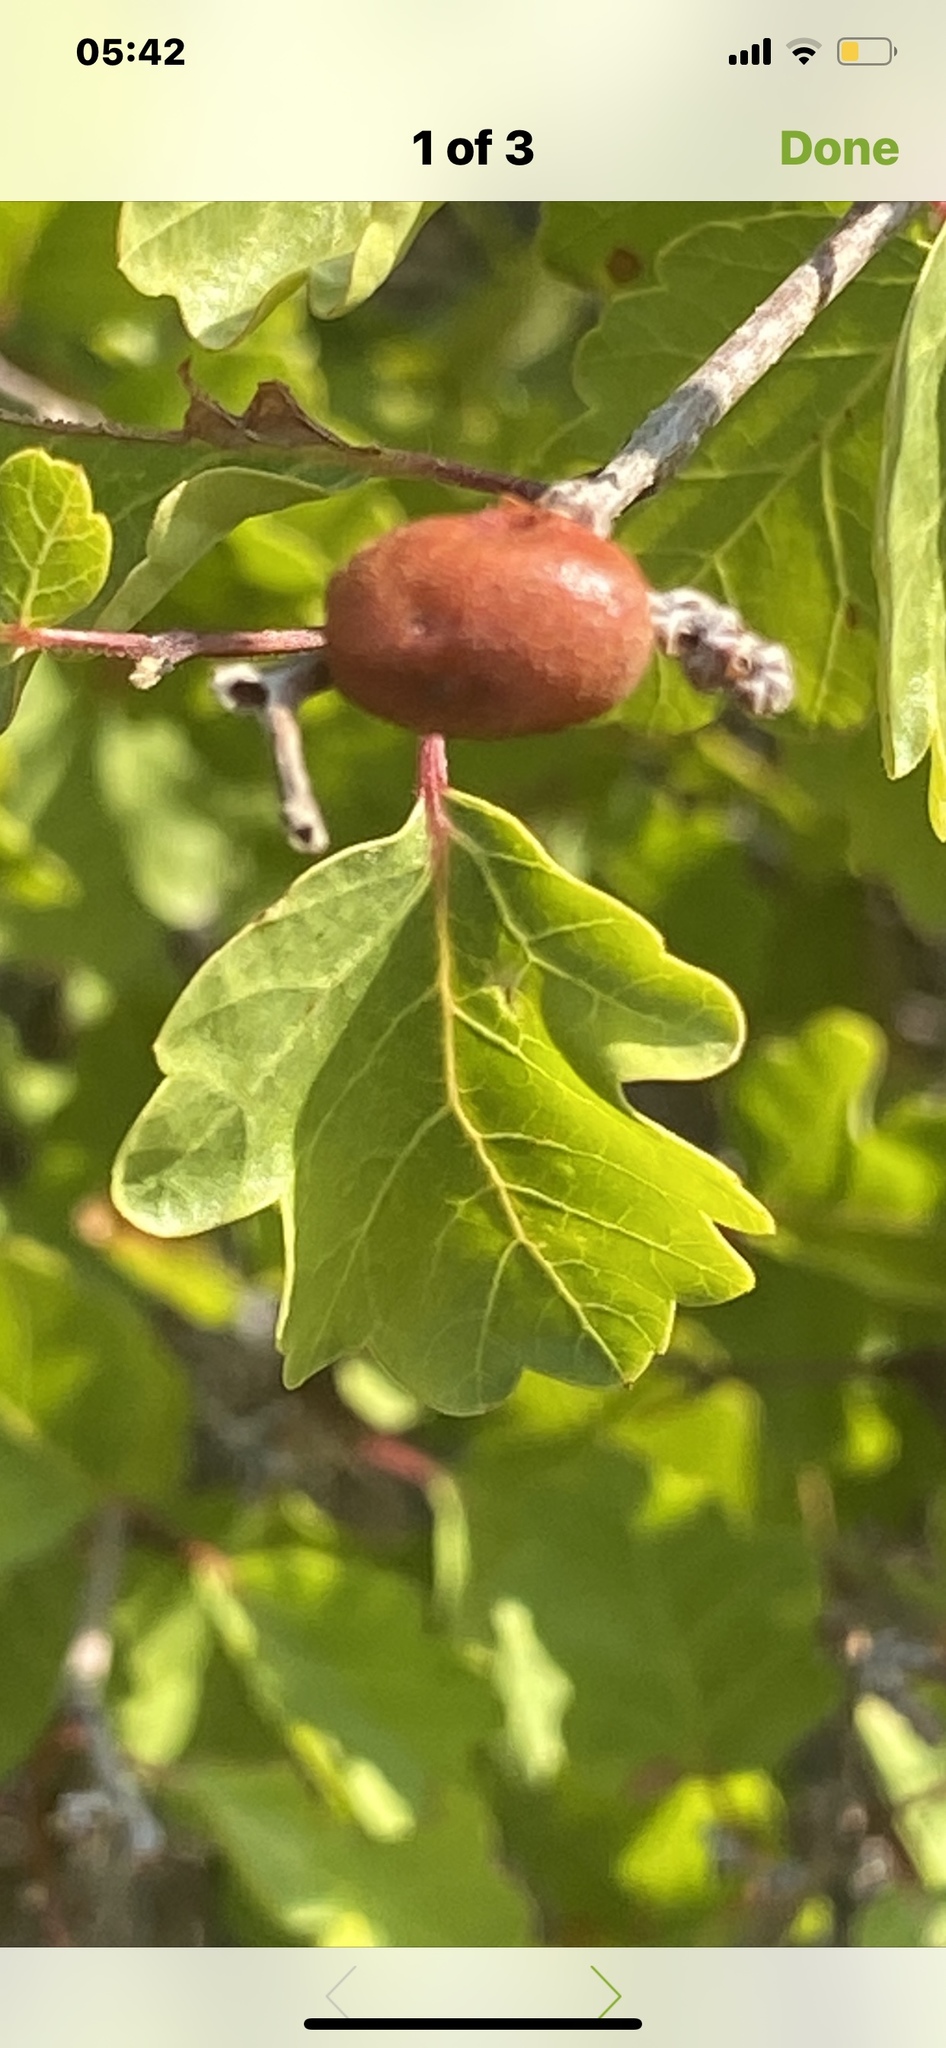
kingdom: Plantae
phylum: Tracheophyta
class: Magnoliopsida
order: Sapindales
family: Anacardiaceae
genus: Rhus
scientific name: Rhus aromatica
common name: Aromatic sumac
